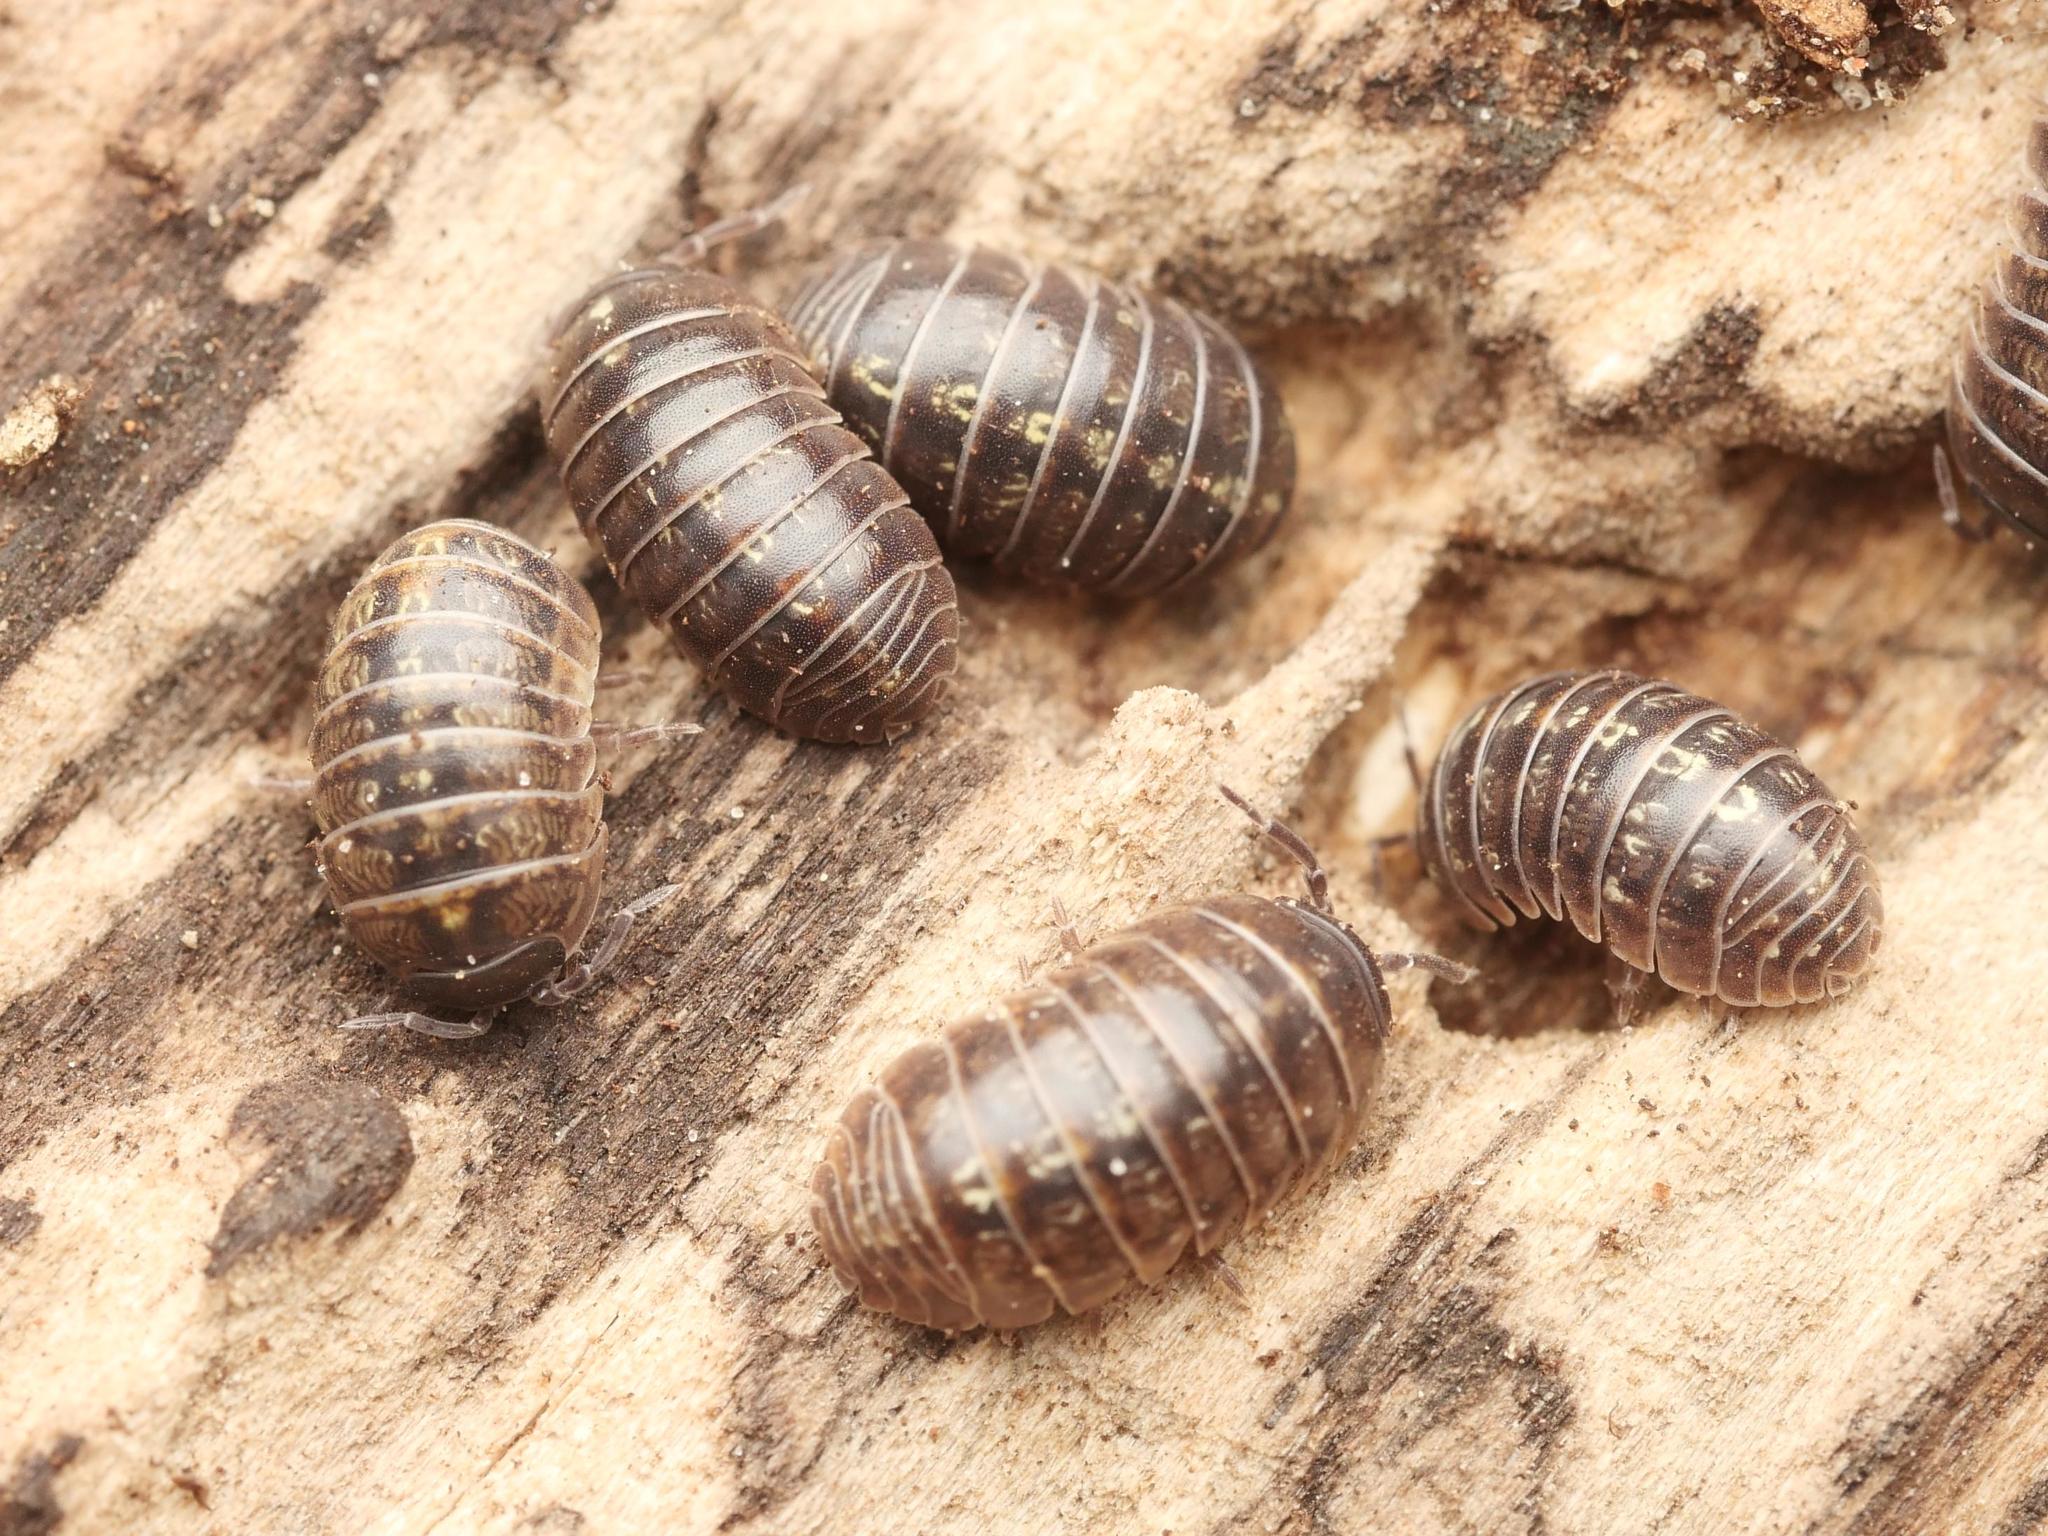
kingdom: Animalia
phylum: Arthropoda
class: Malacostraca
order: Isopoda
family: Armadillidiidae
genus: Armadillidium
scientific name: Armadillidium vulgare
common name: Common pill woodlouse
